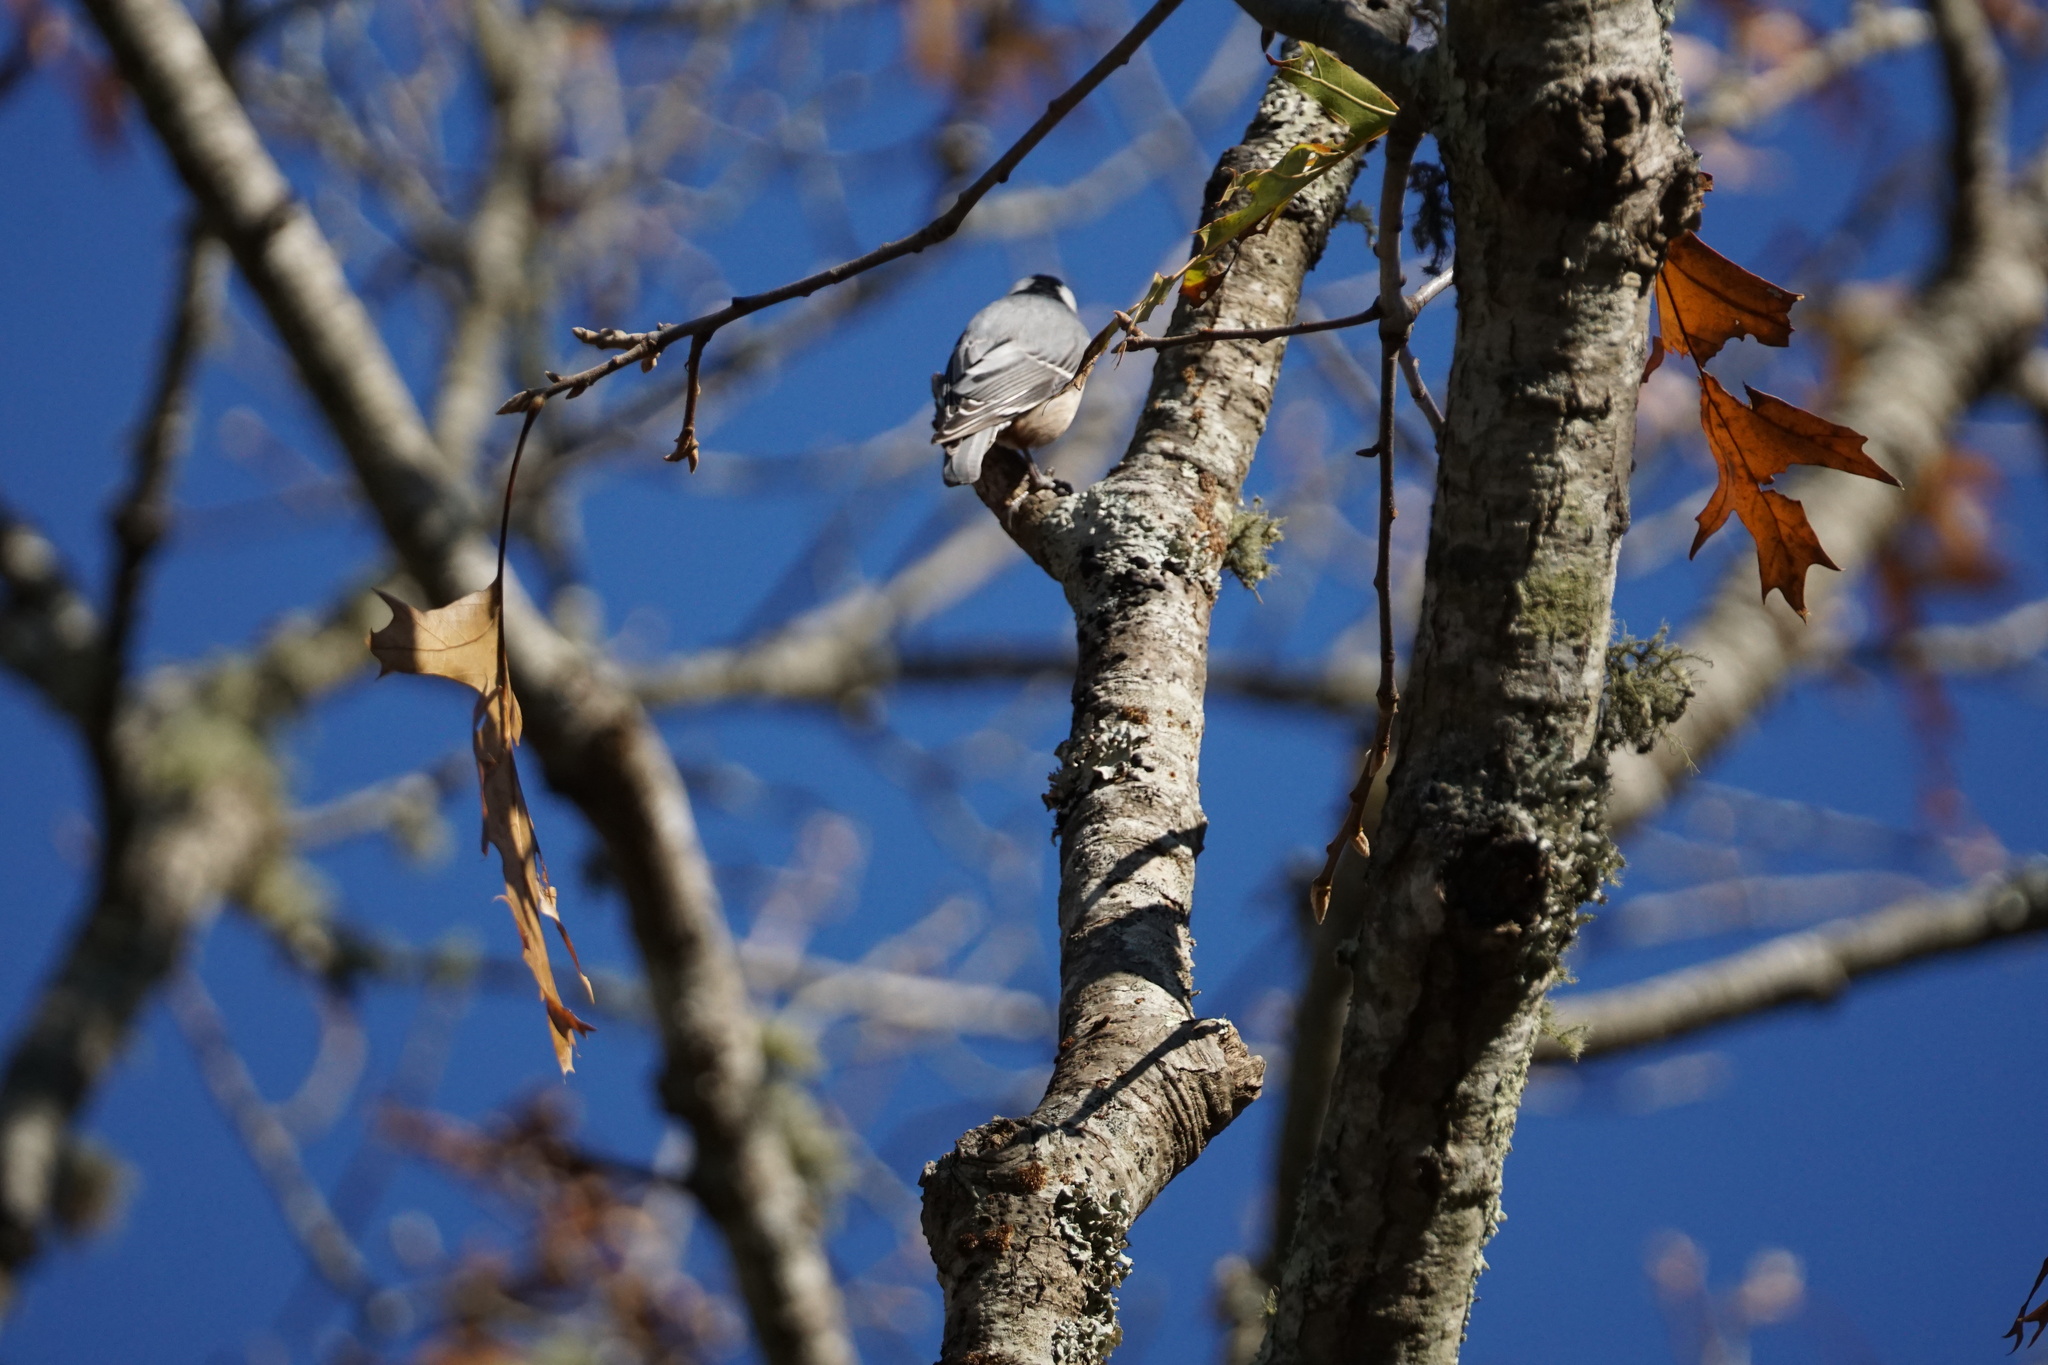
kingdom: Animalia
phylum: Chordata
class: Aves
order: Passeriformes
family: Sittidae
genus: Sitta
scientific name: Sitta carolinensis
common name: White-breasted nuthatch
